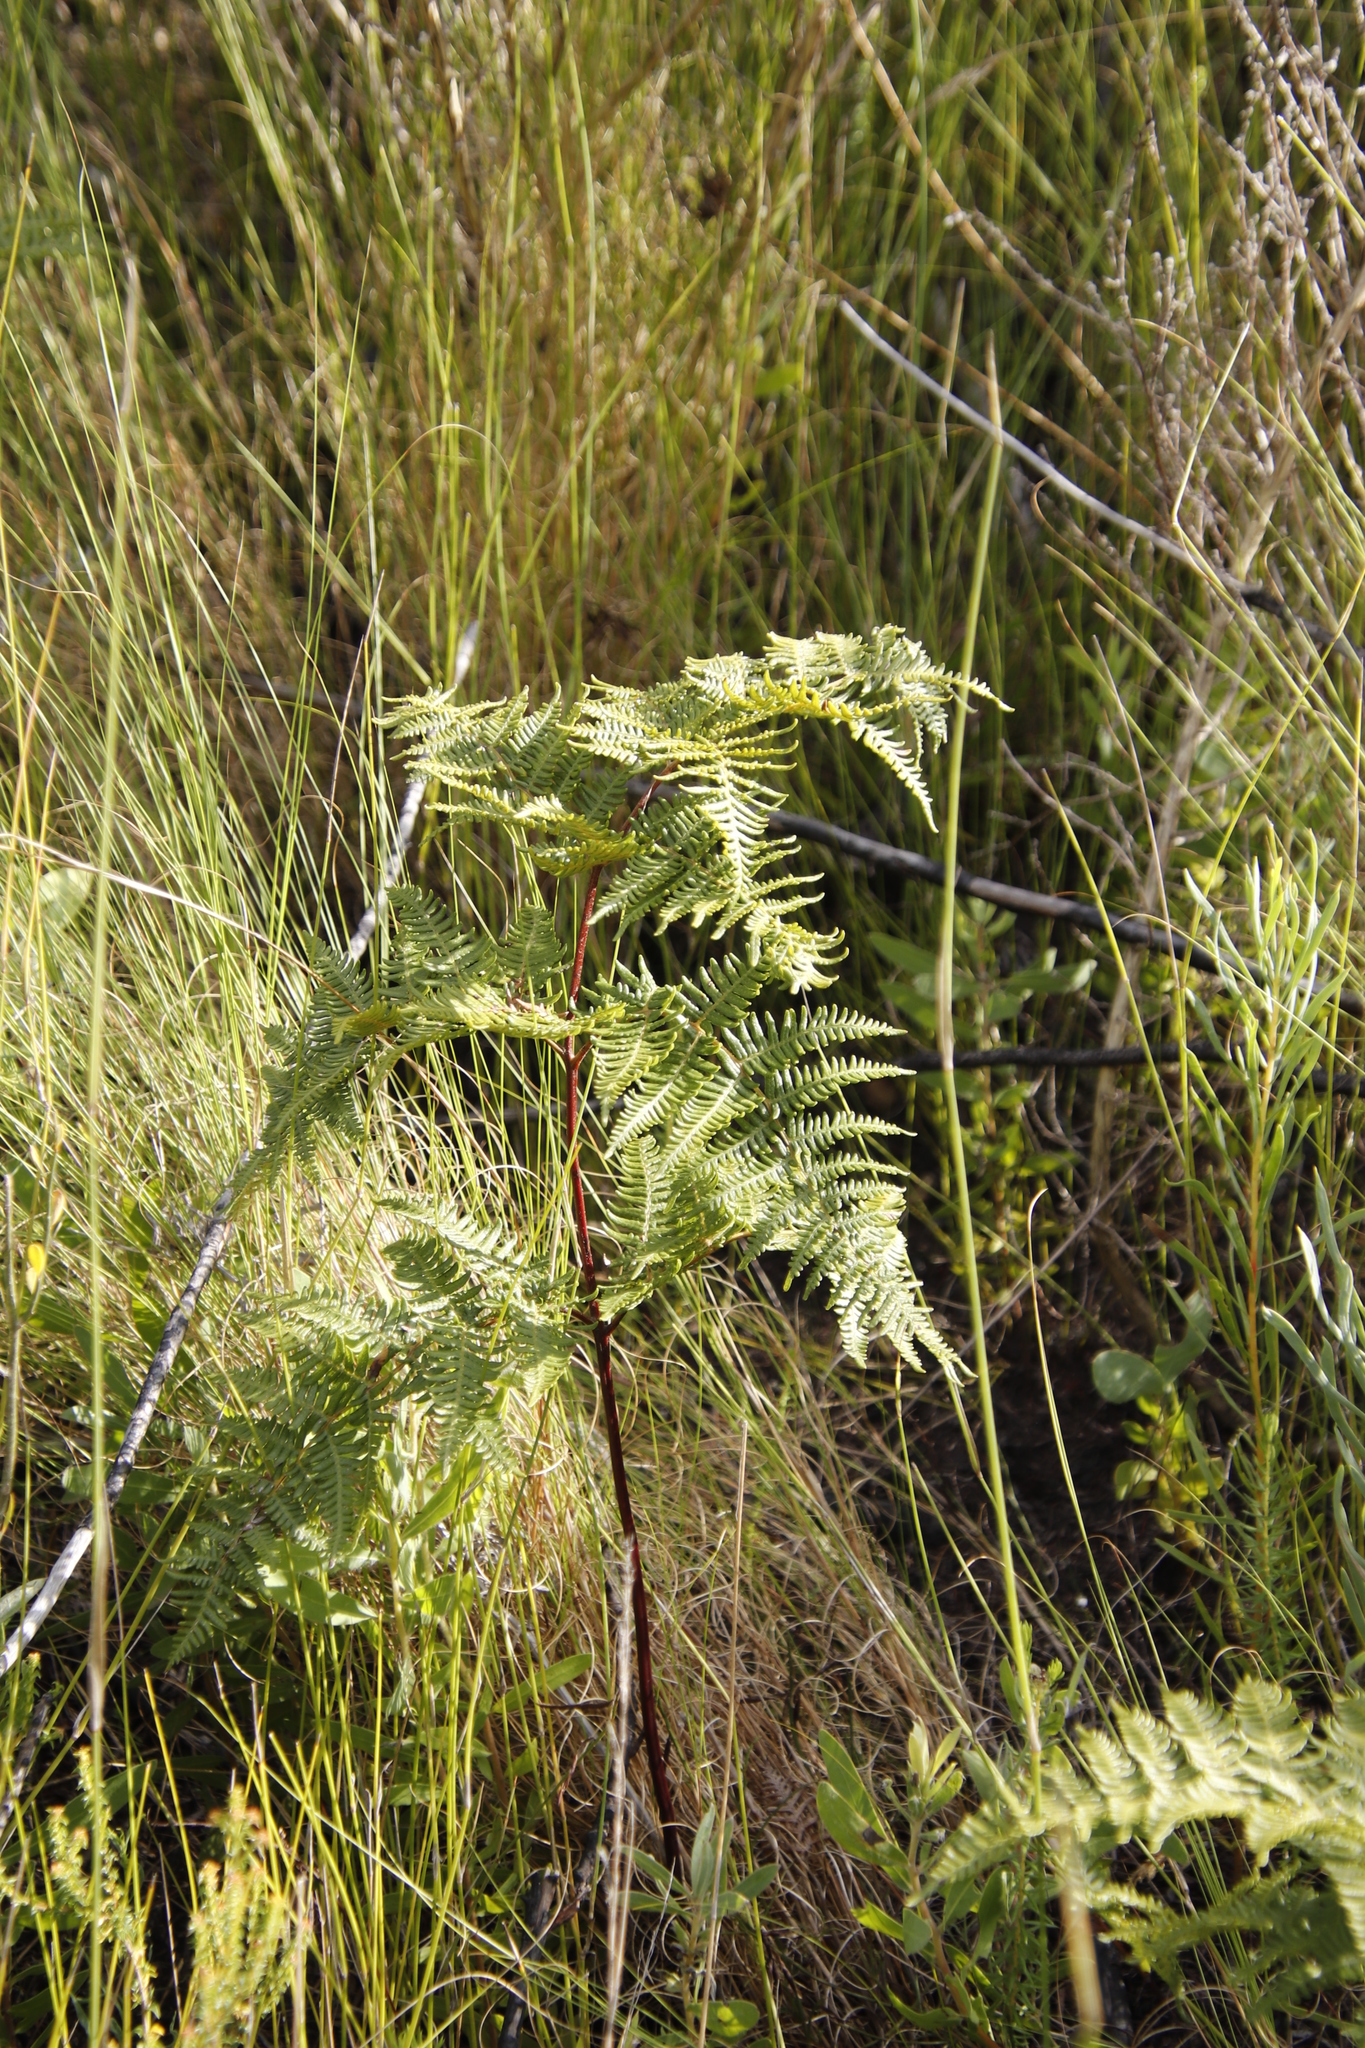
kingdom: Plantae
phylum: Tracheophyta
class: Polypodiopsida
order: Polypodiales
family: Dennstaedtiaceae
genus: Pteridium
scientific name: Pteridium aquilinum
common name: Bracken
